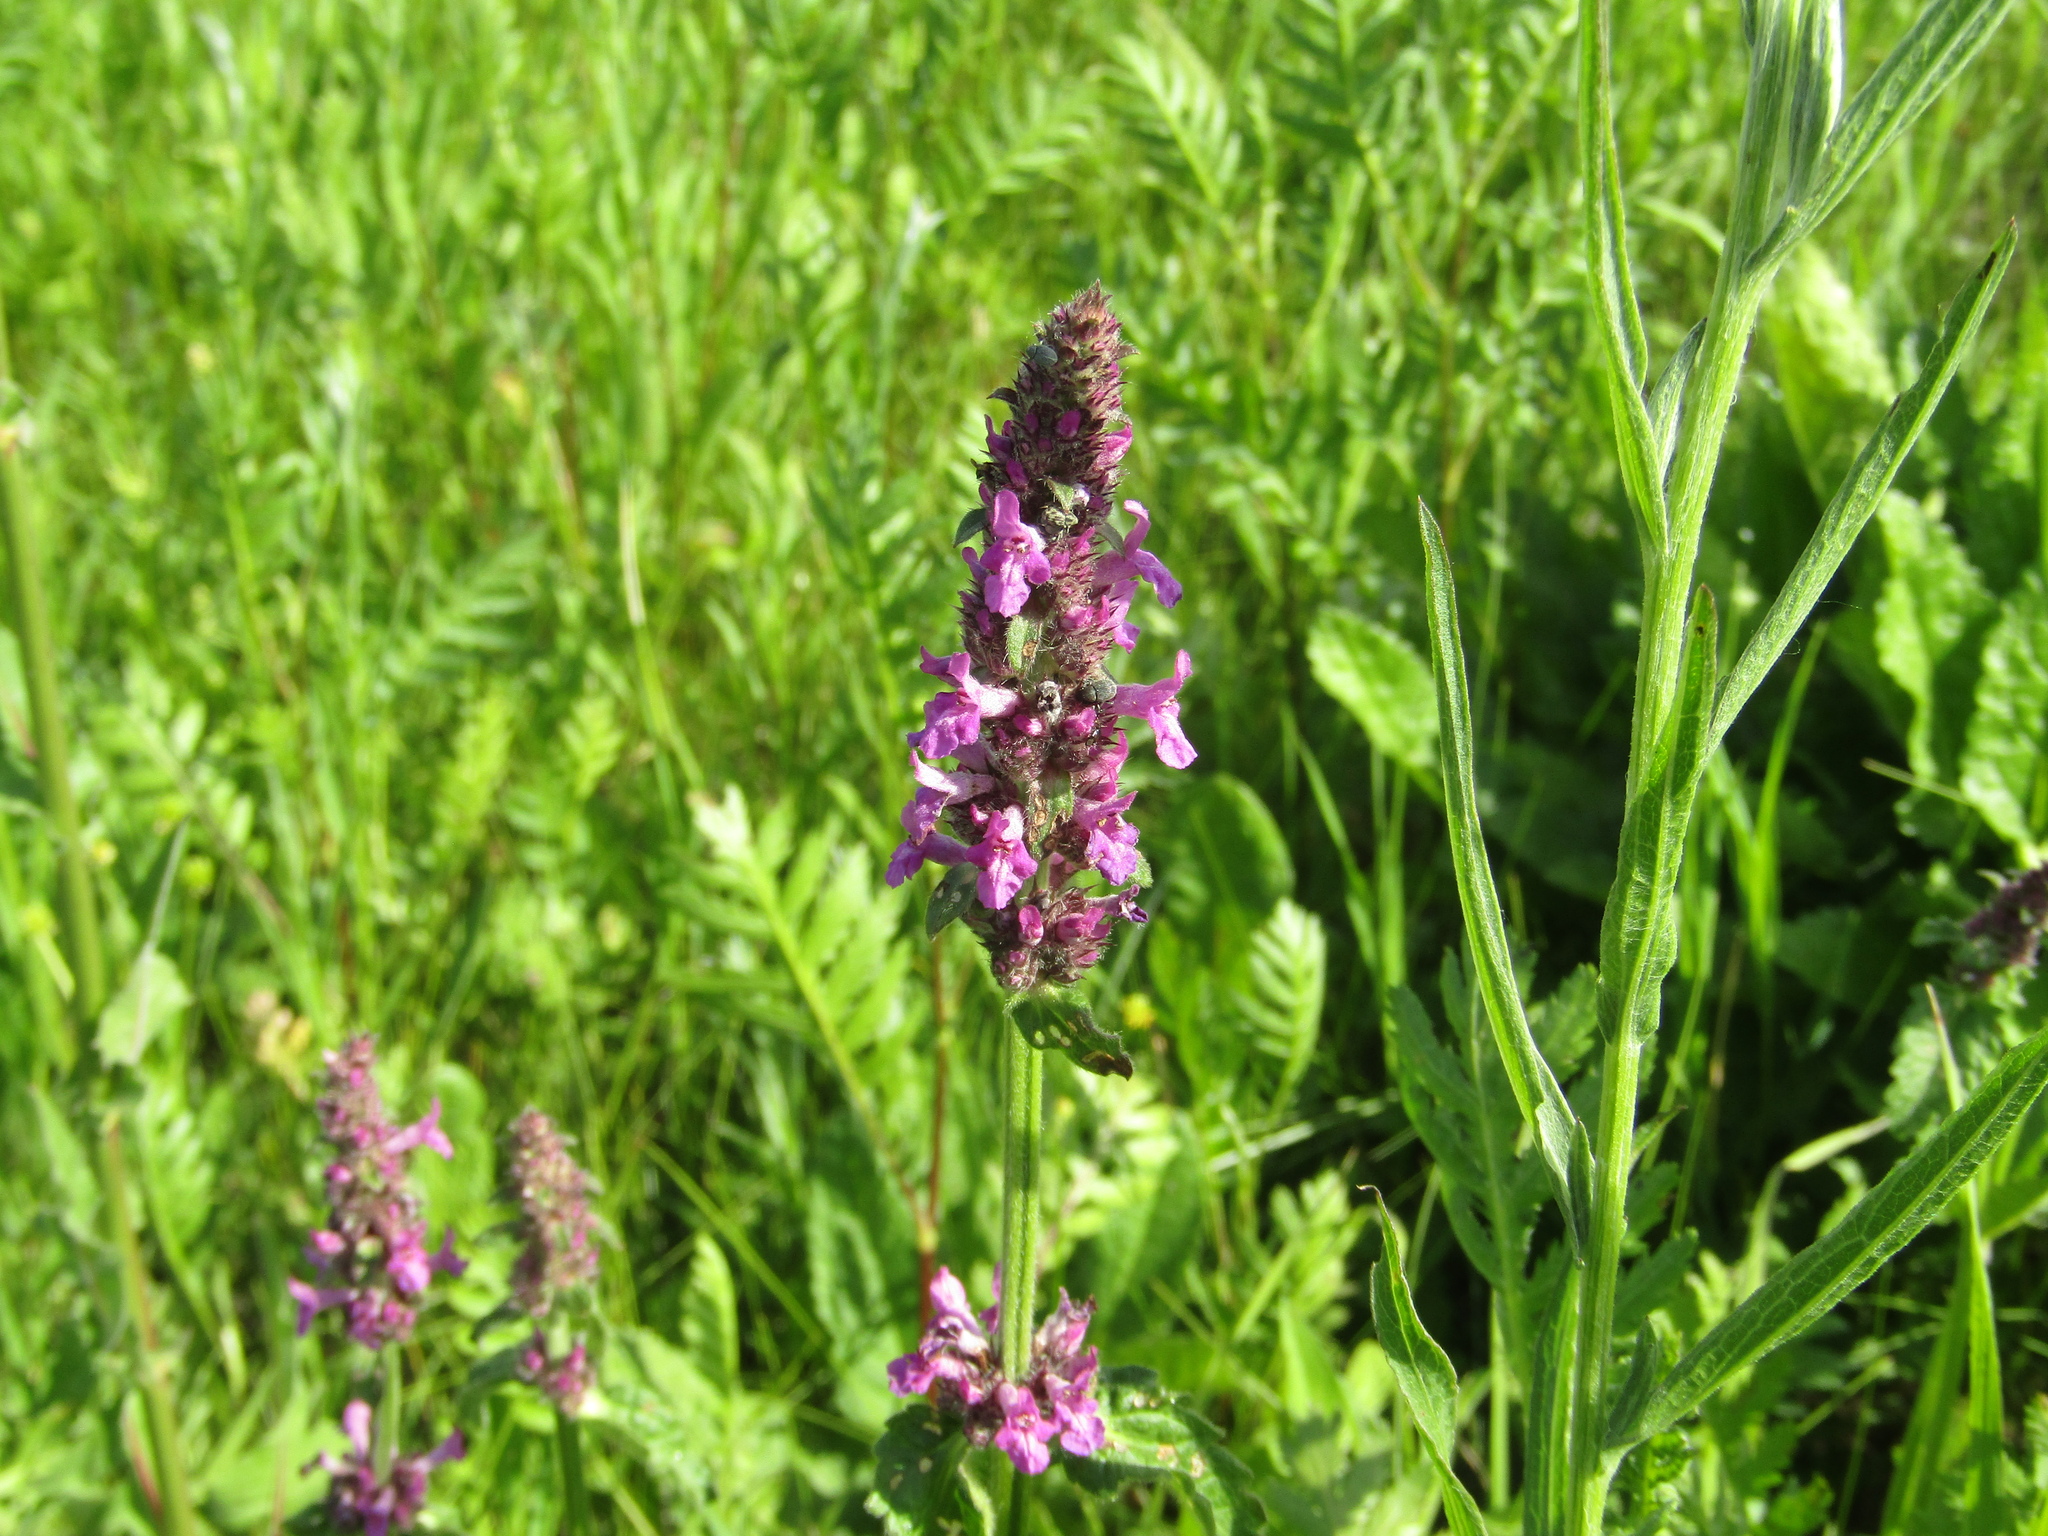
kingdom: Plantae
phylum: Tracheophyta
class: Magnoliopsida
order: Lamiales
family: Lamiaceae
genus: Betonica
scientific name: Betonica officinalis
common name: Bishop's-wort
